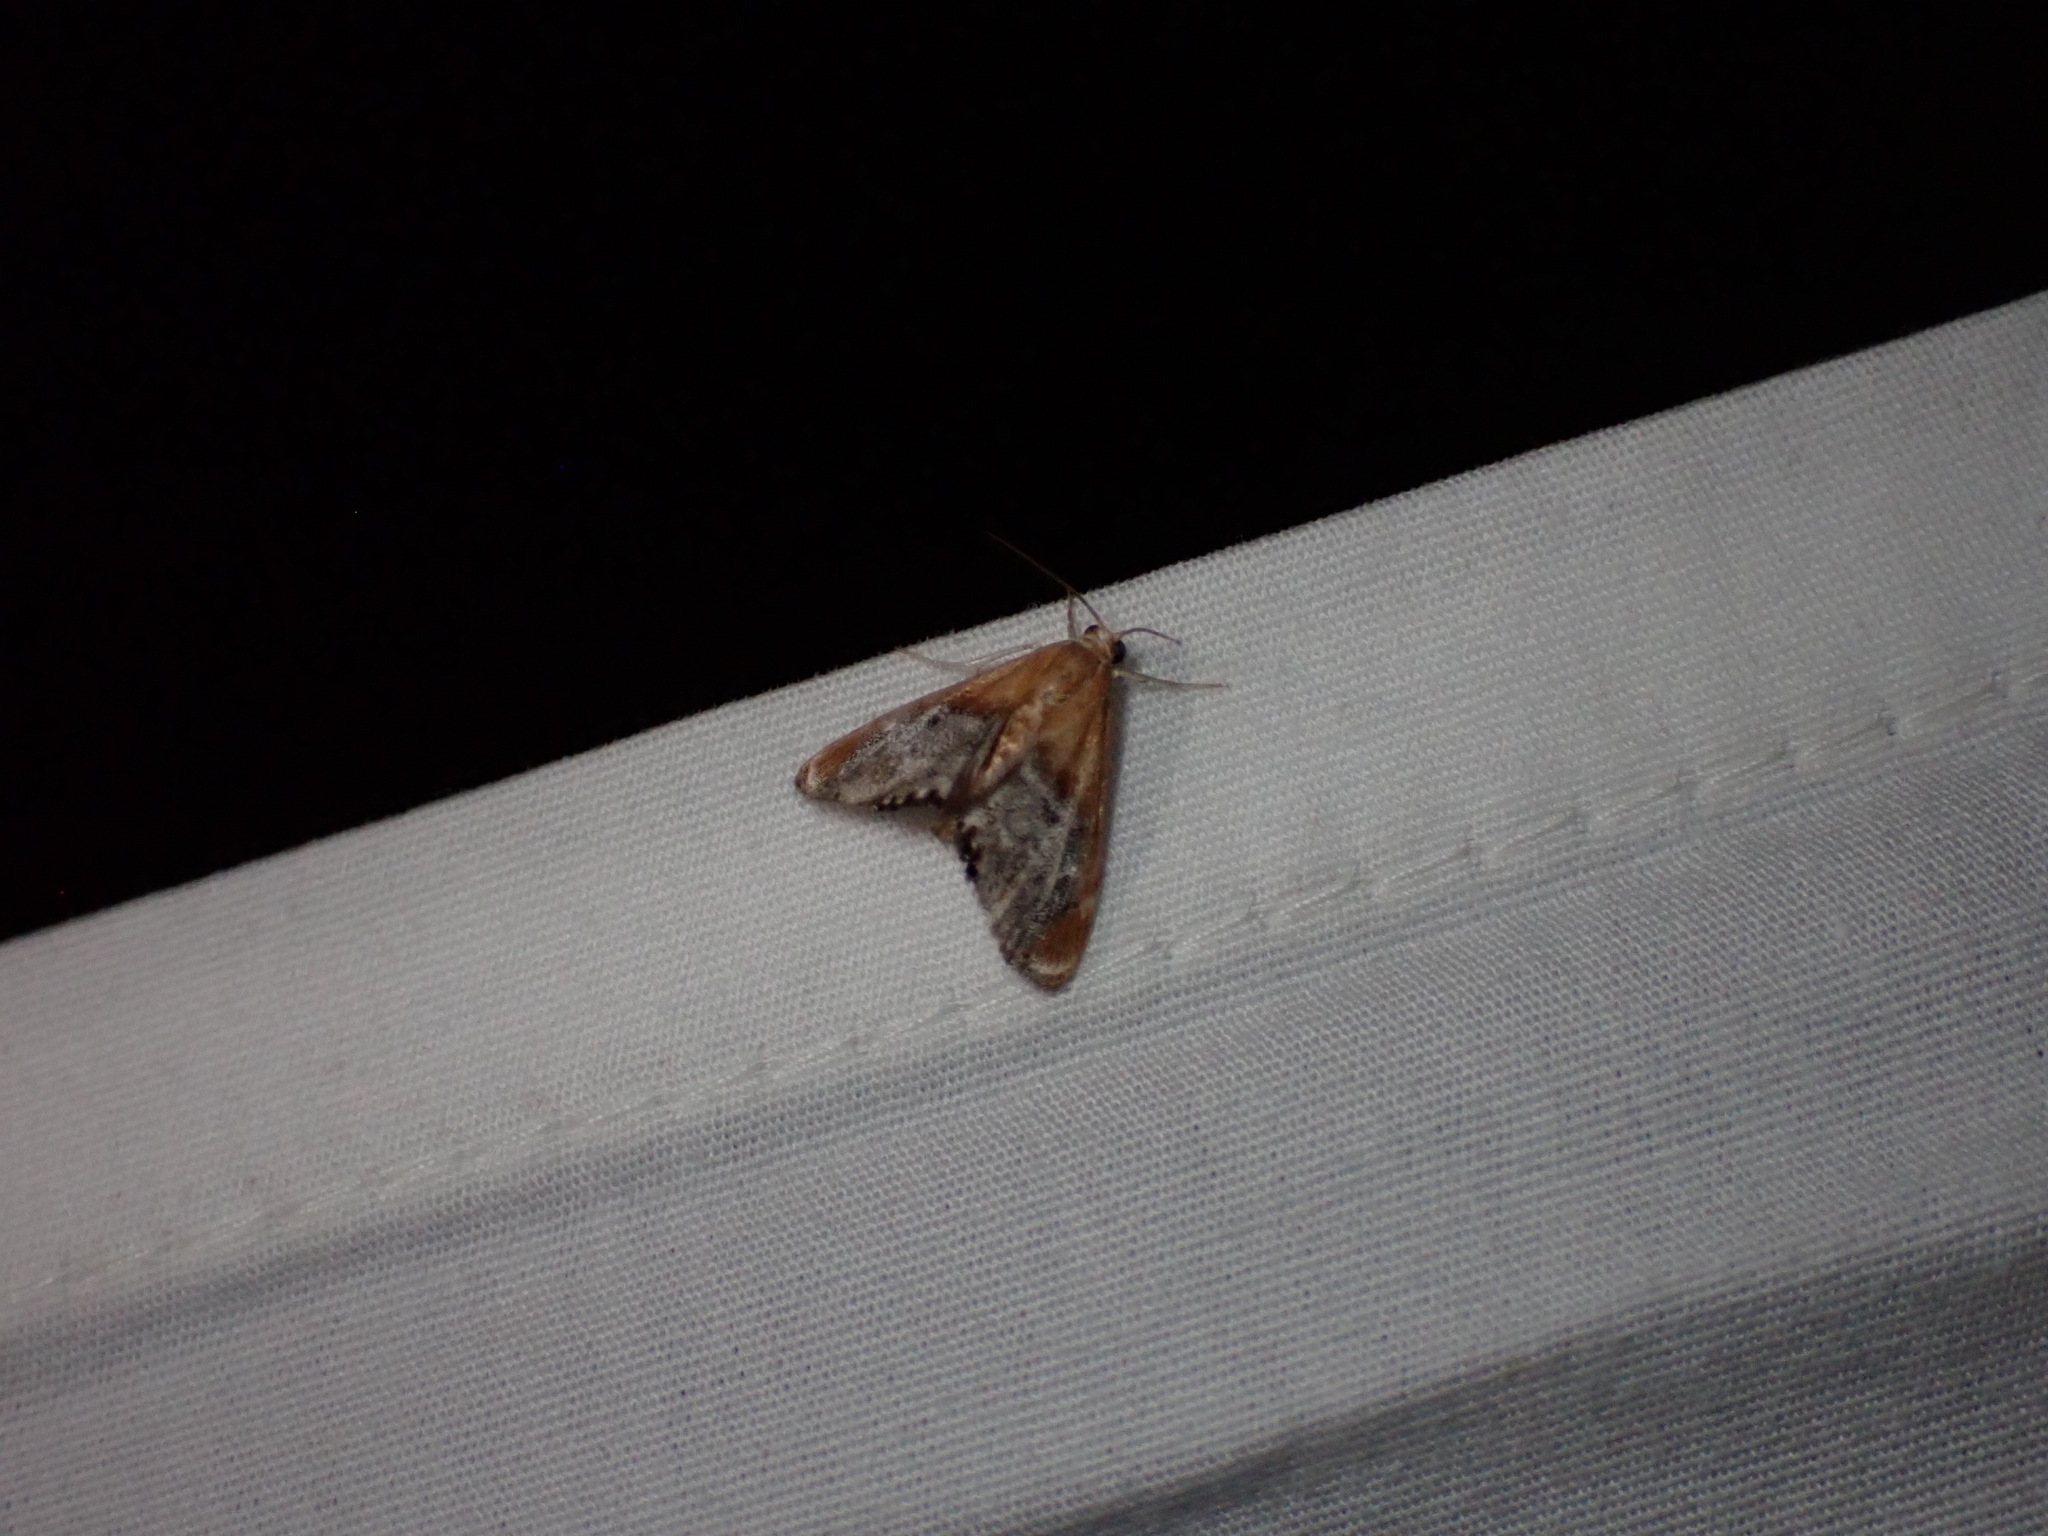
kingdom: Animalia
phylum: Arthropoda
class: Insecta
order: Lepidoptera
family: Crambidae
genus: Chalcoela
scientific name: Chalcoela iphitalis
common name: Sooty-winged chalcoela moth
